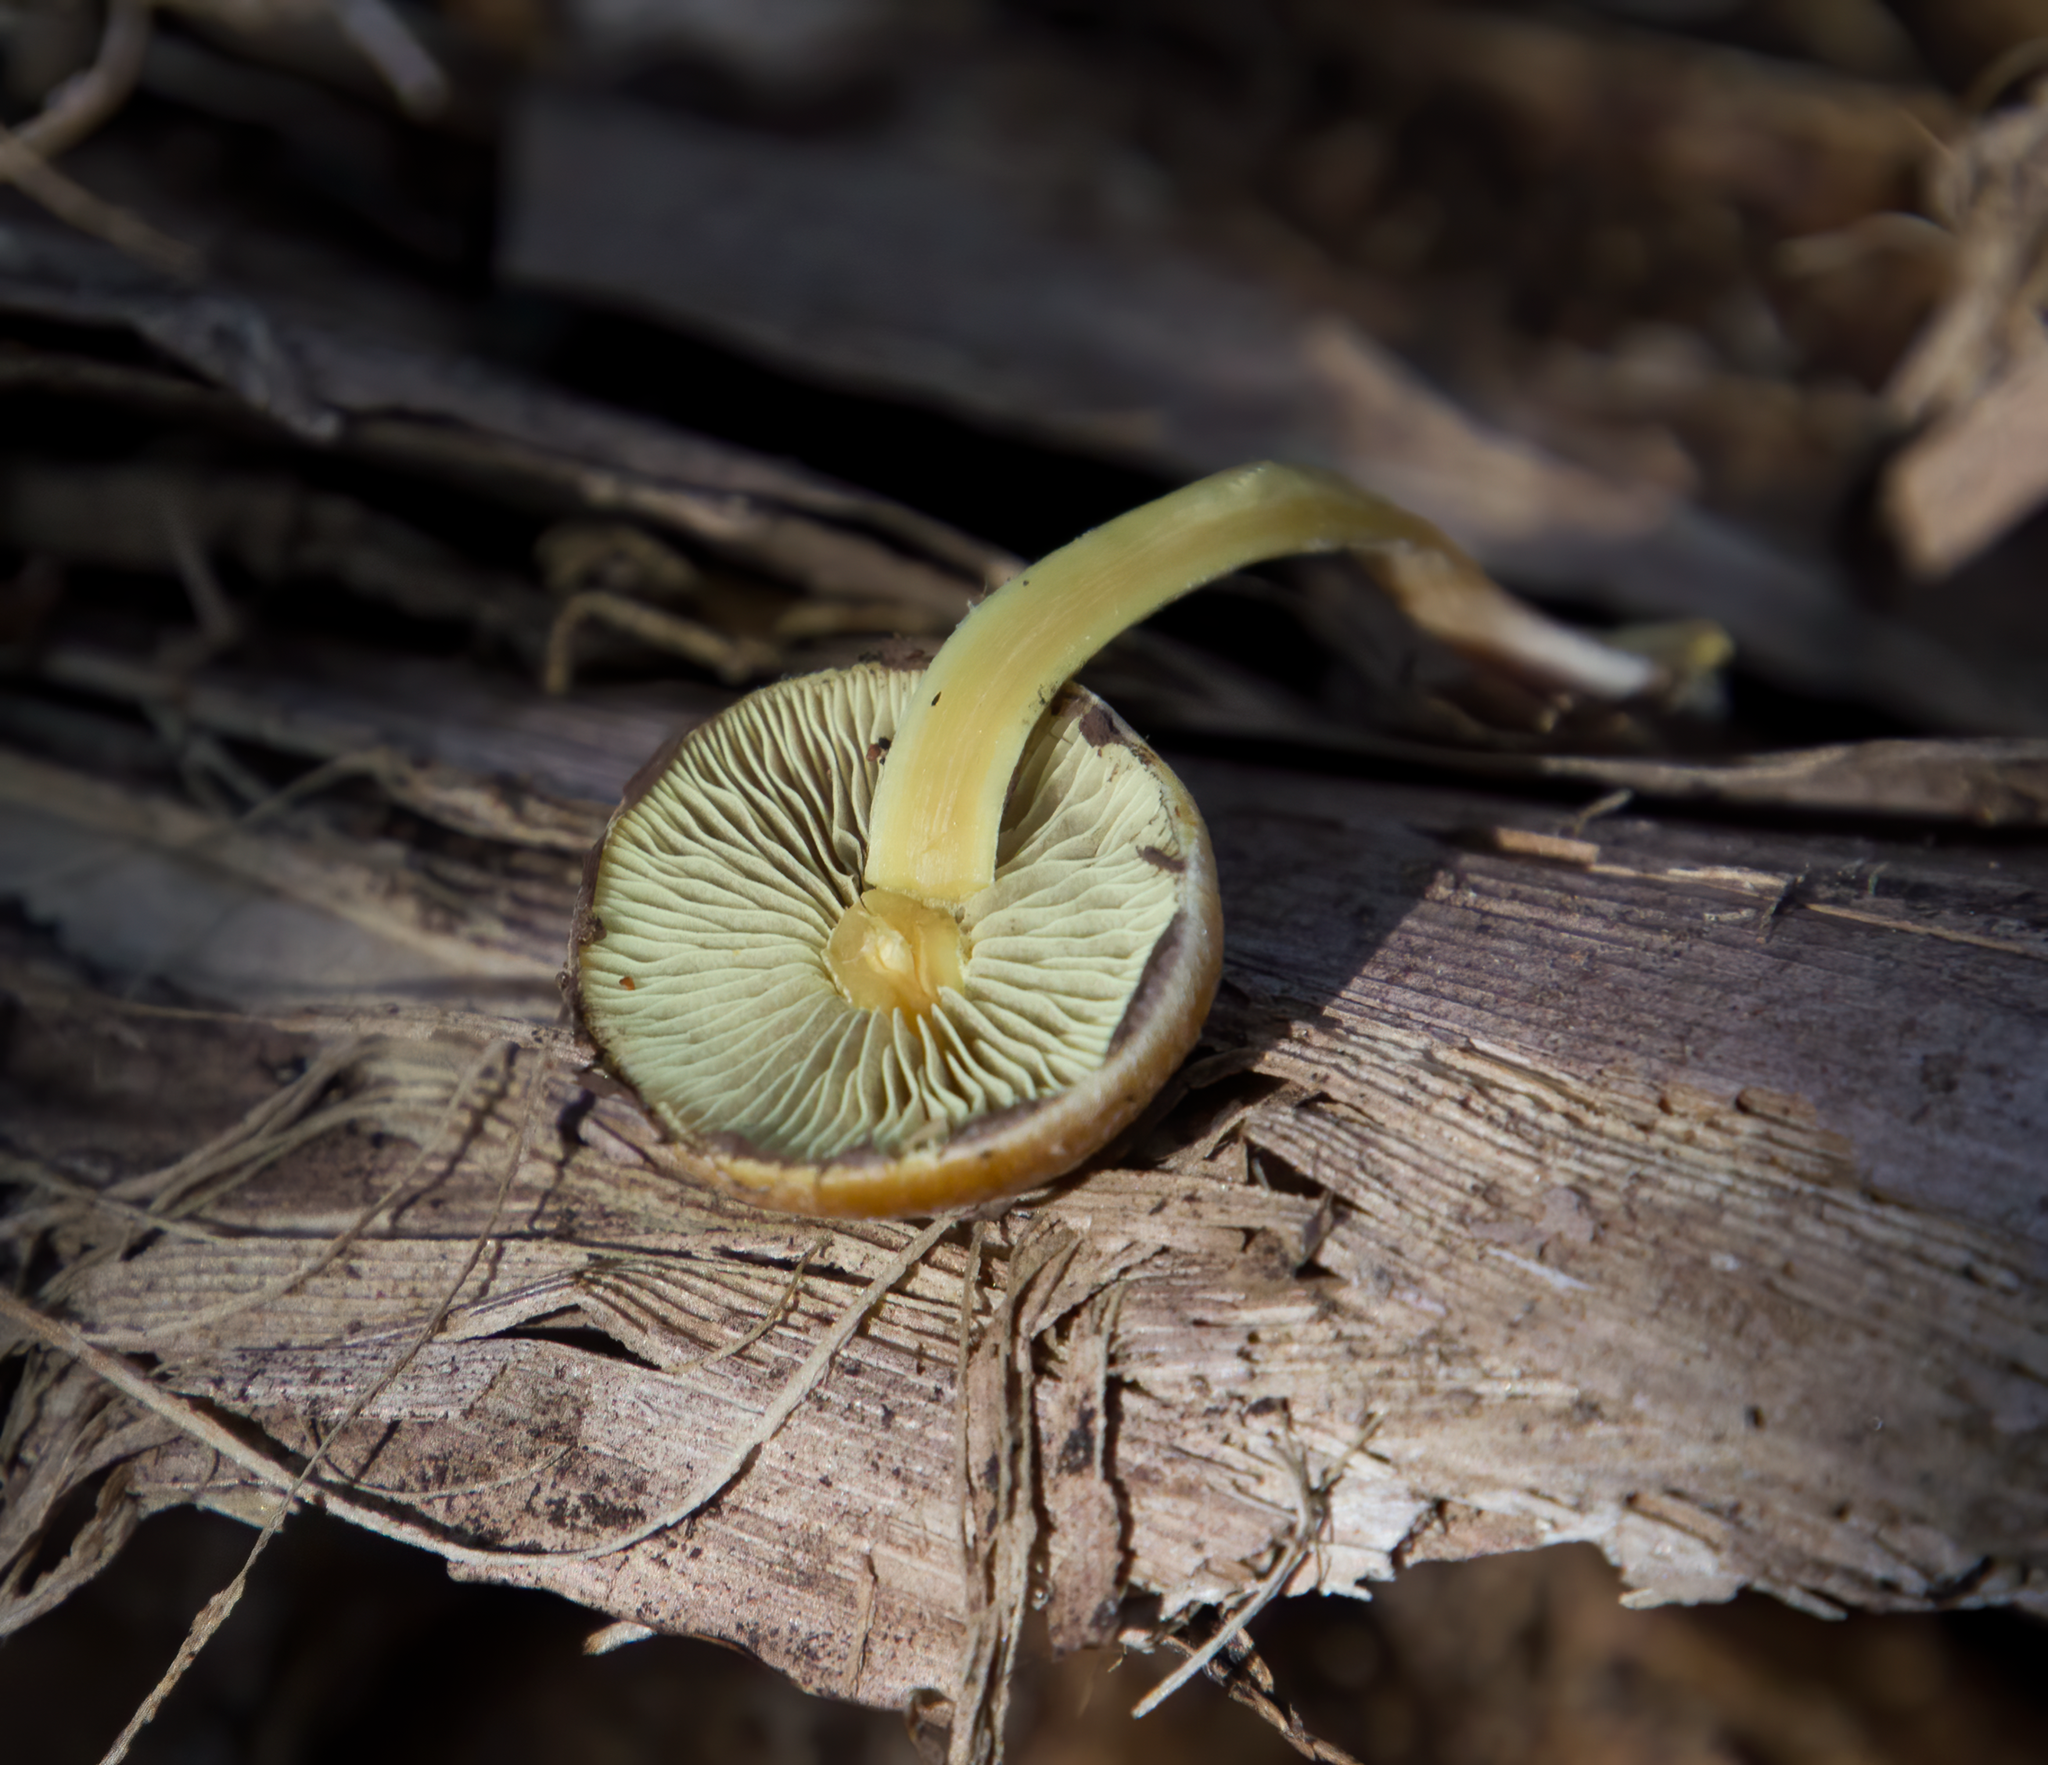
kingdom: Fungi
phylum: Basidiomycota
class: Agaricomycetes
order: Agaricales
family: Strophariaceae
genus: Hypholoma
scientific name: Hypholoma acutum
